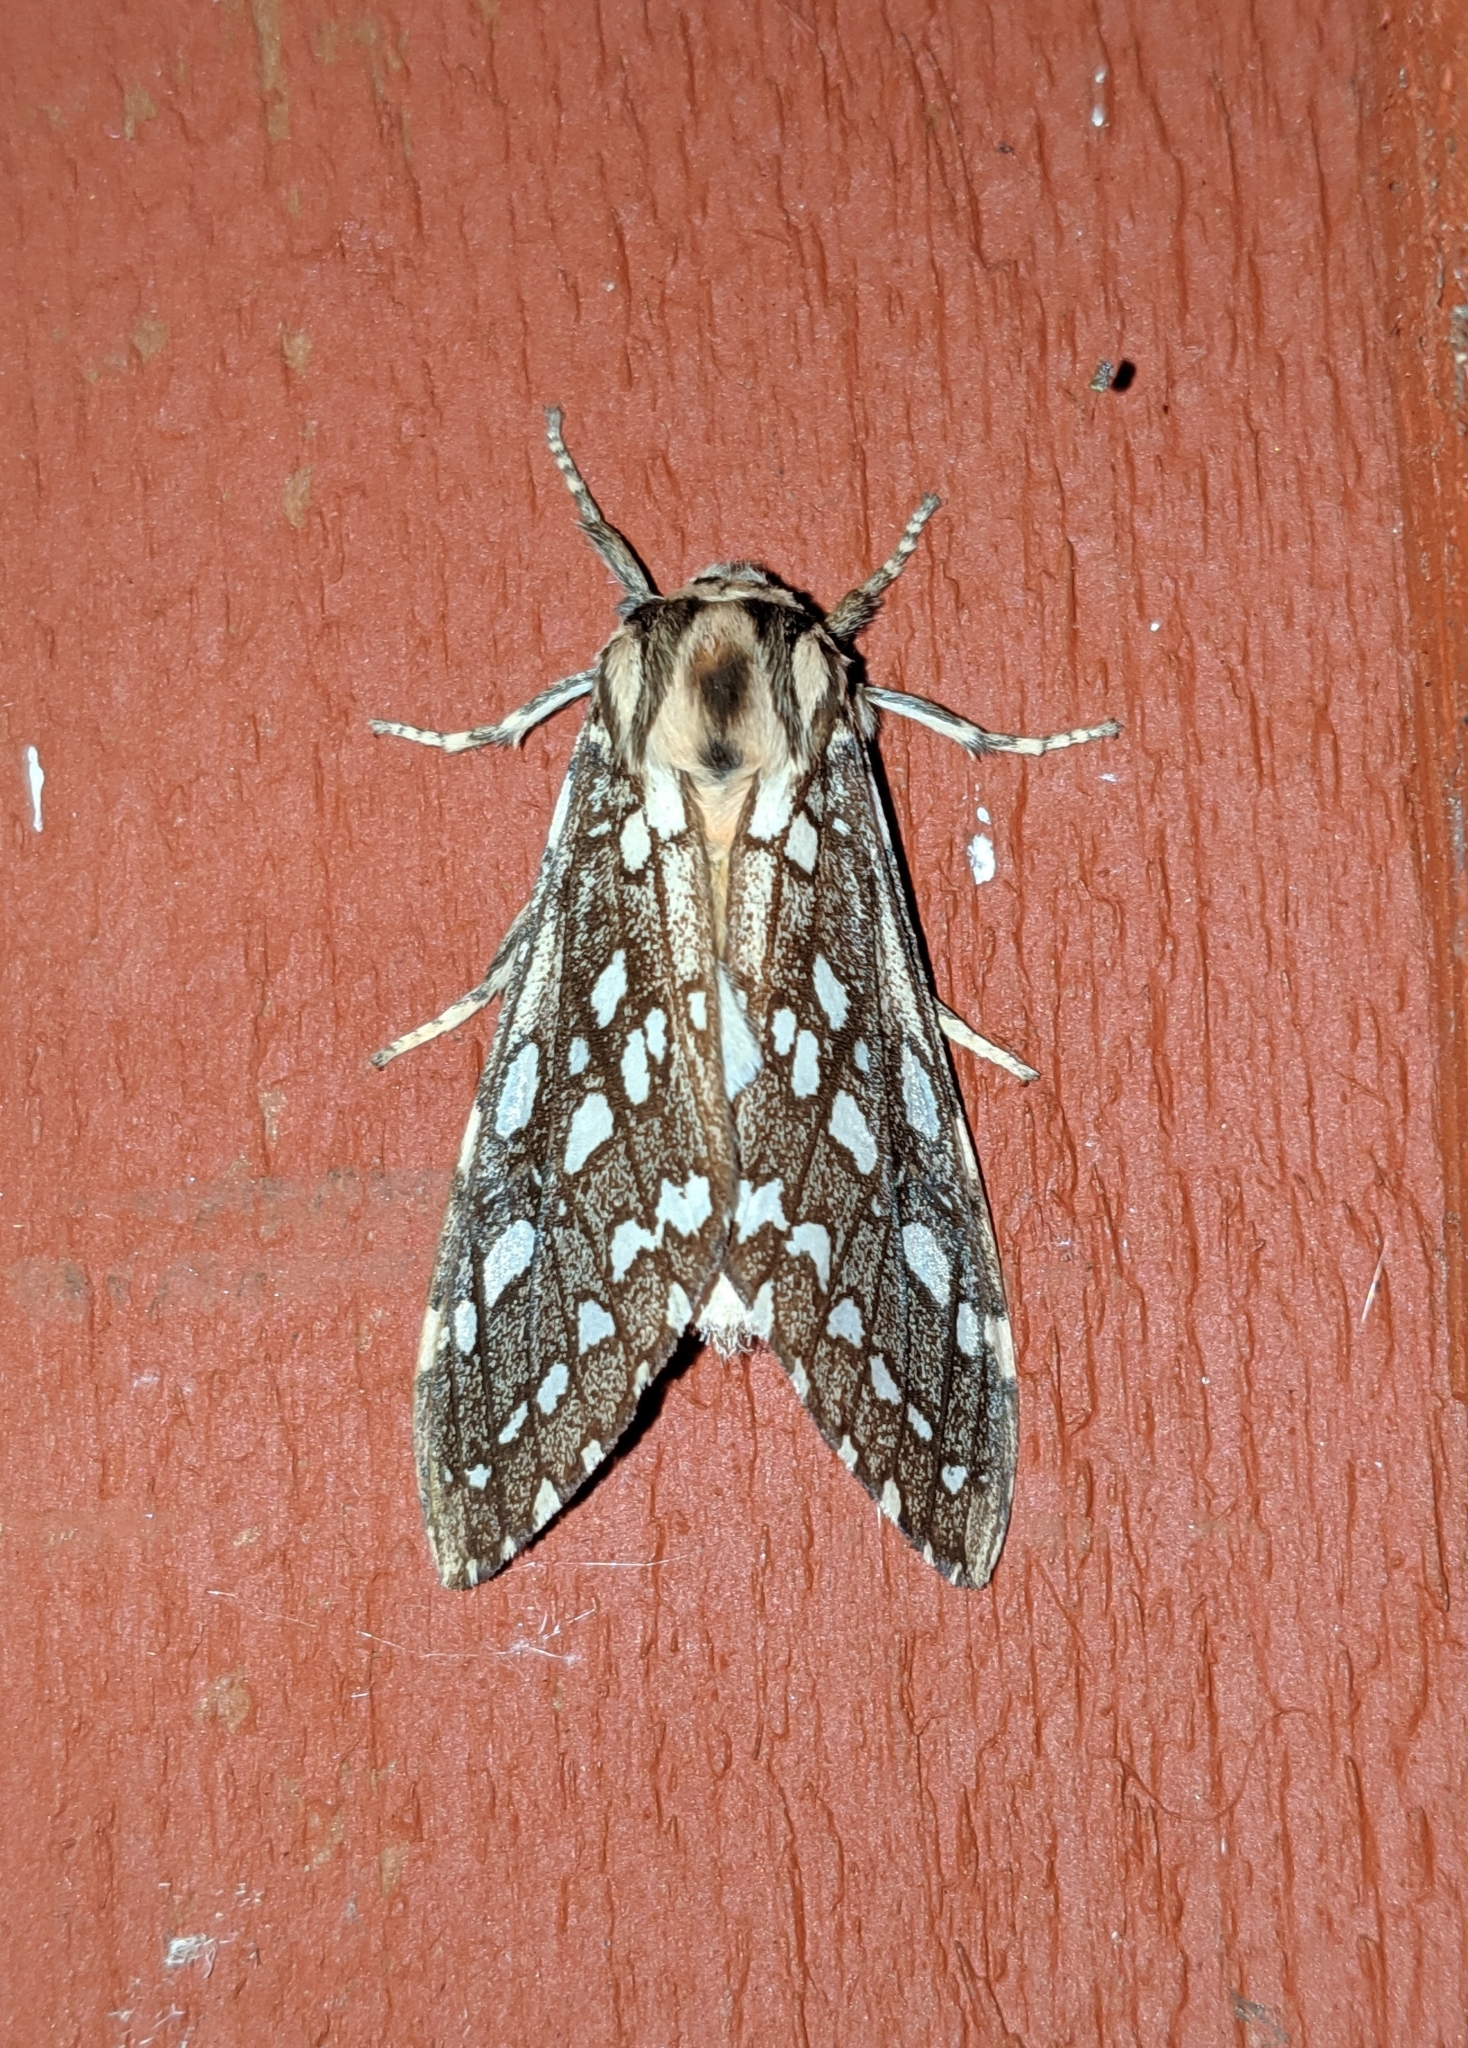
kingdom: Animalia
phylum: Arthropoda
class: Insecta
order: Lepidoptera
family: Erebidae
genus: Lophocampa
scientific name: Lophocampa argentata
